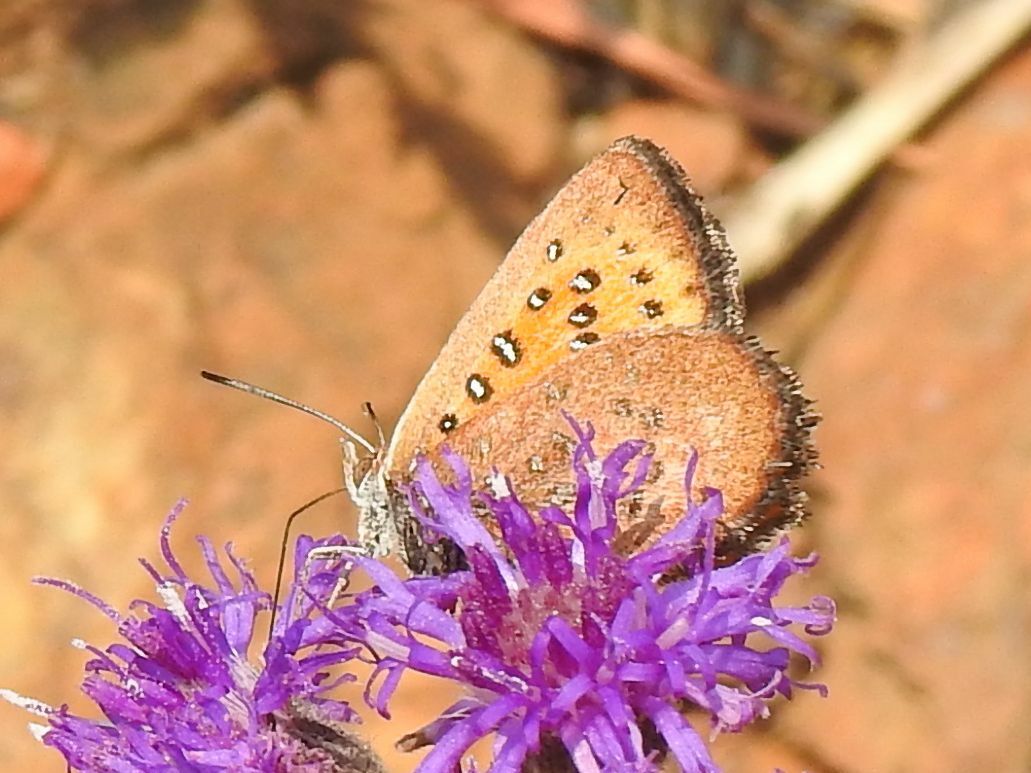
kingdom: Animalia
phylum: Arthropoda
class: Insecta
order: Lepidoptera
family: Lycaenidae
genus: Aloeides
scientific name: Aloeides swanepoeli
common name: Swanepoel's copper
